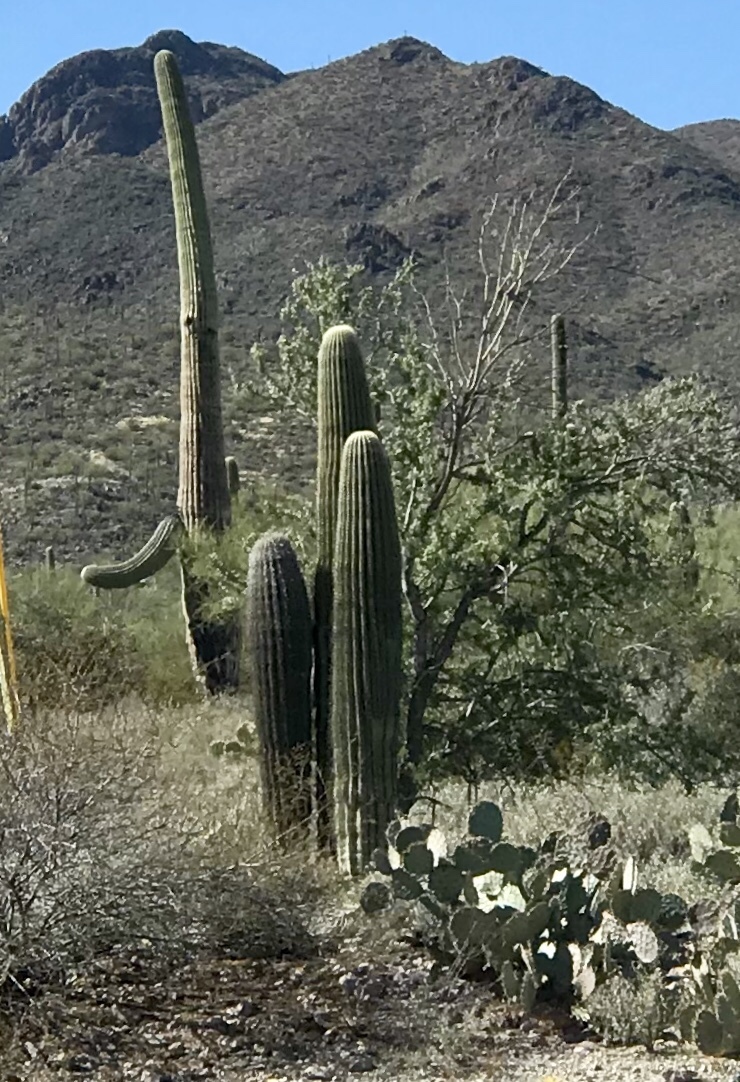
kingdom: Plantae
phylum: Tracheophyta
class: Magnoliopsida
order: Caryophyllales
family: Cactaceae
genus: Carnegiea
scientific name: Carnegiea gigantea
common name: Saguaro
